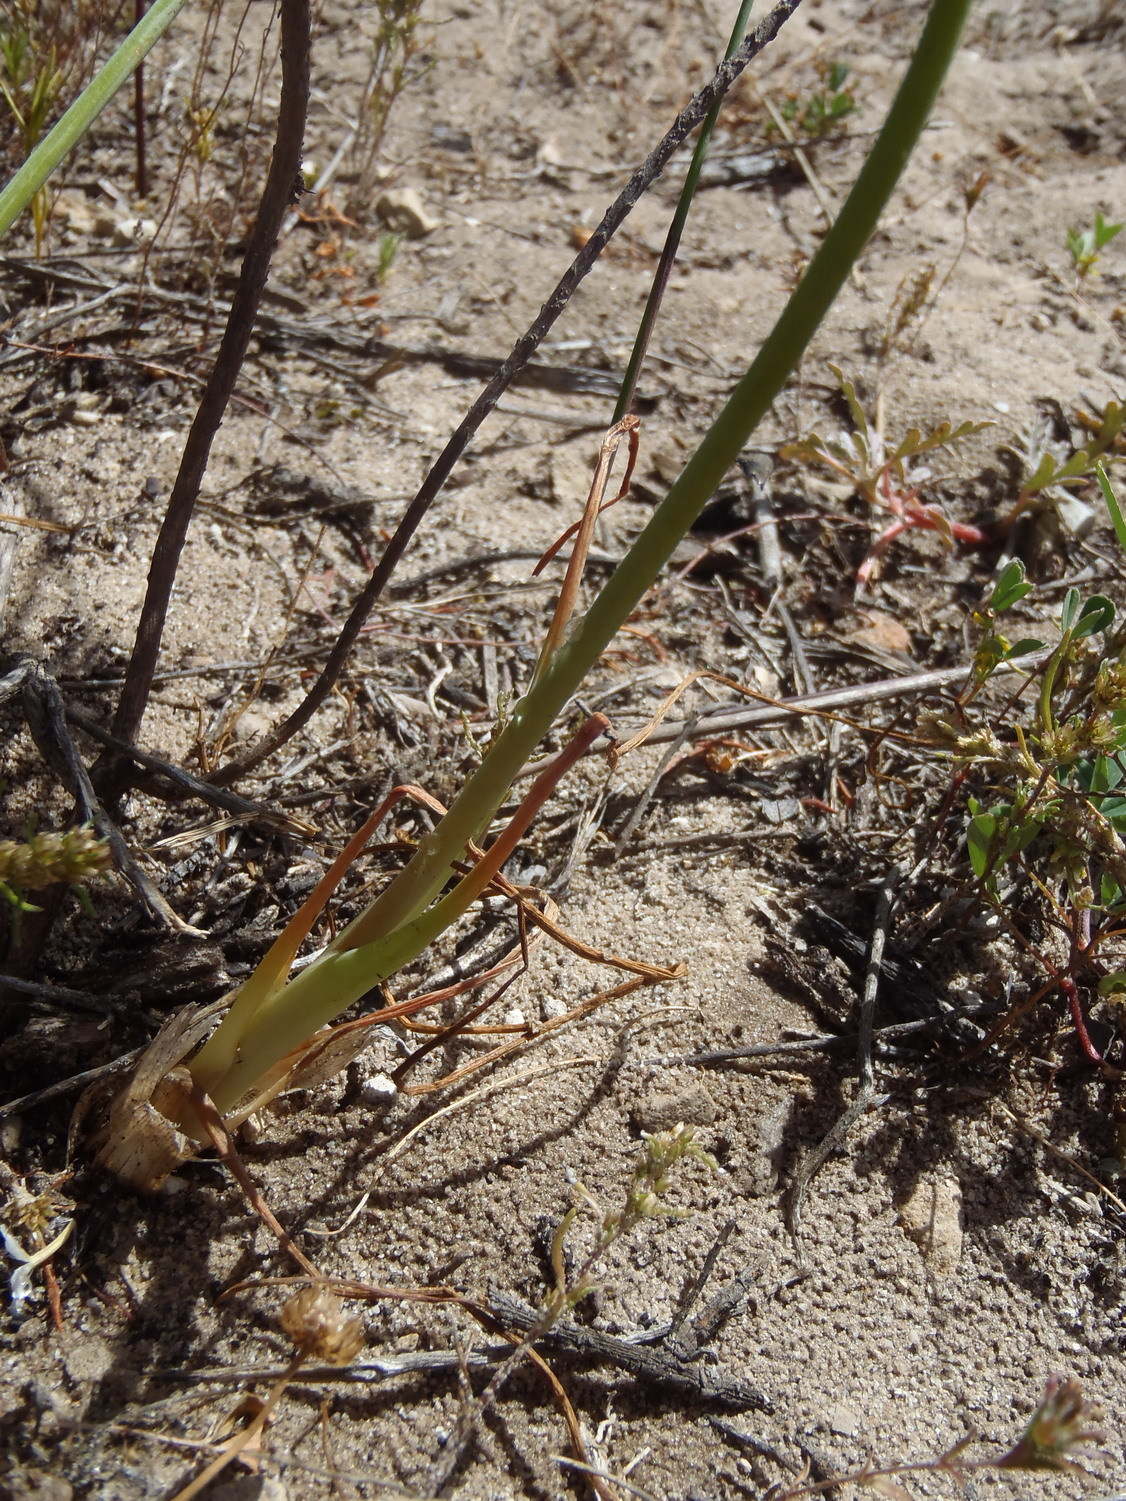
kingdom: Plantae
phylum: Tracheophyta
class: Liliopsida
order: Asparagales
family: Asparagaceae
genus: Albuca
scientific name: Albuca cooperi
